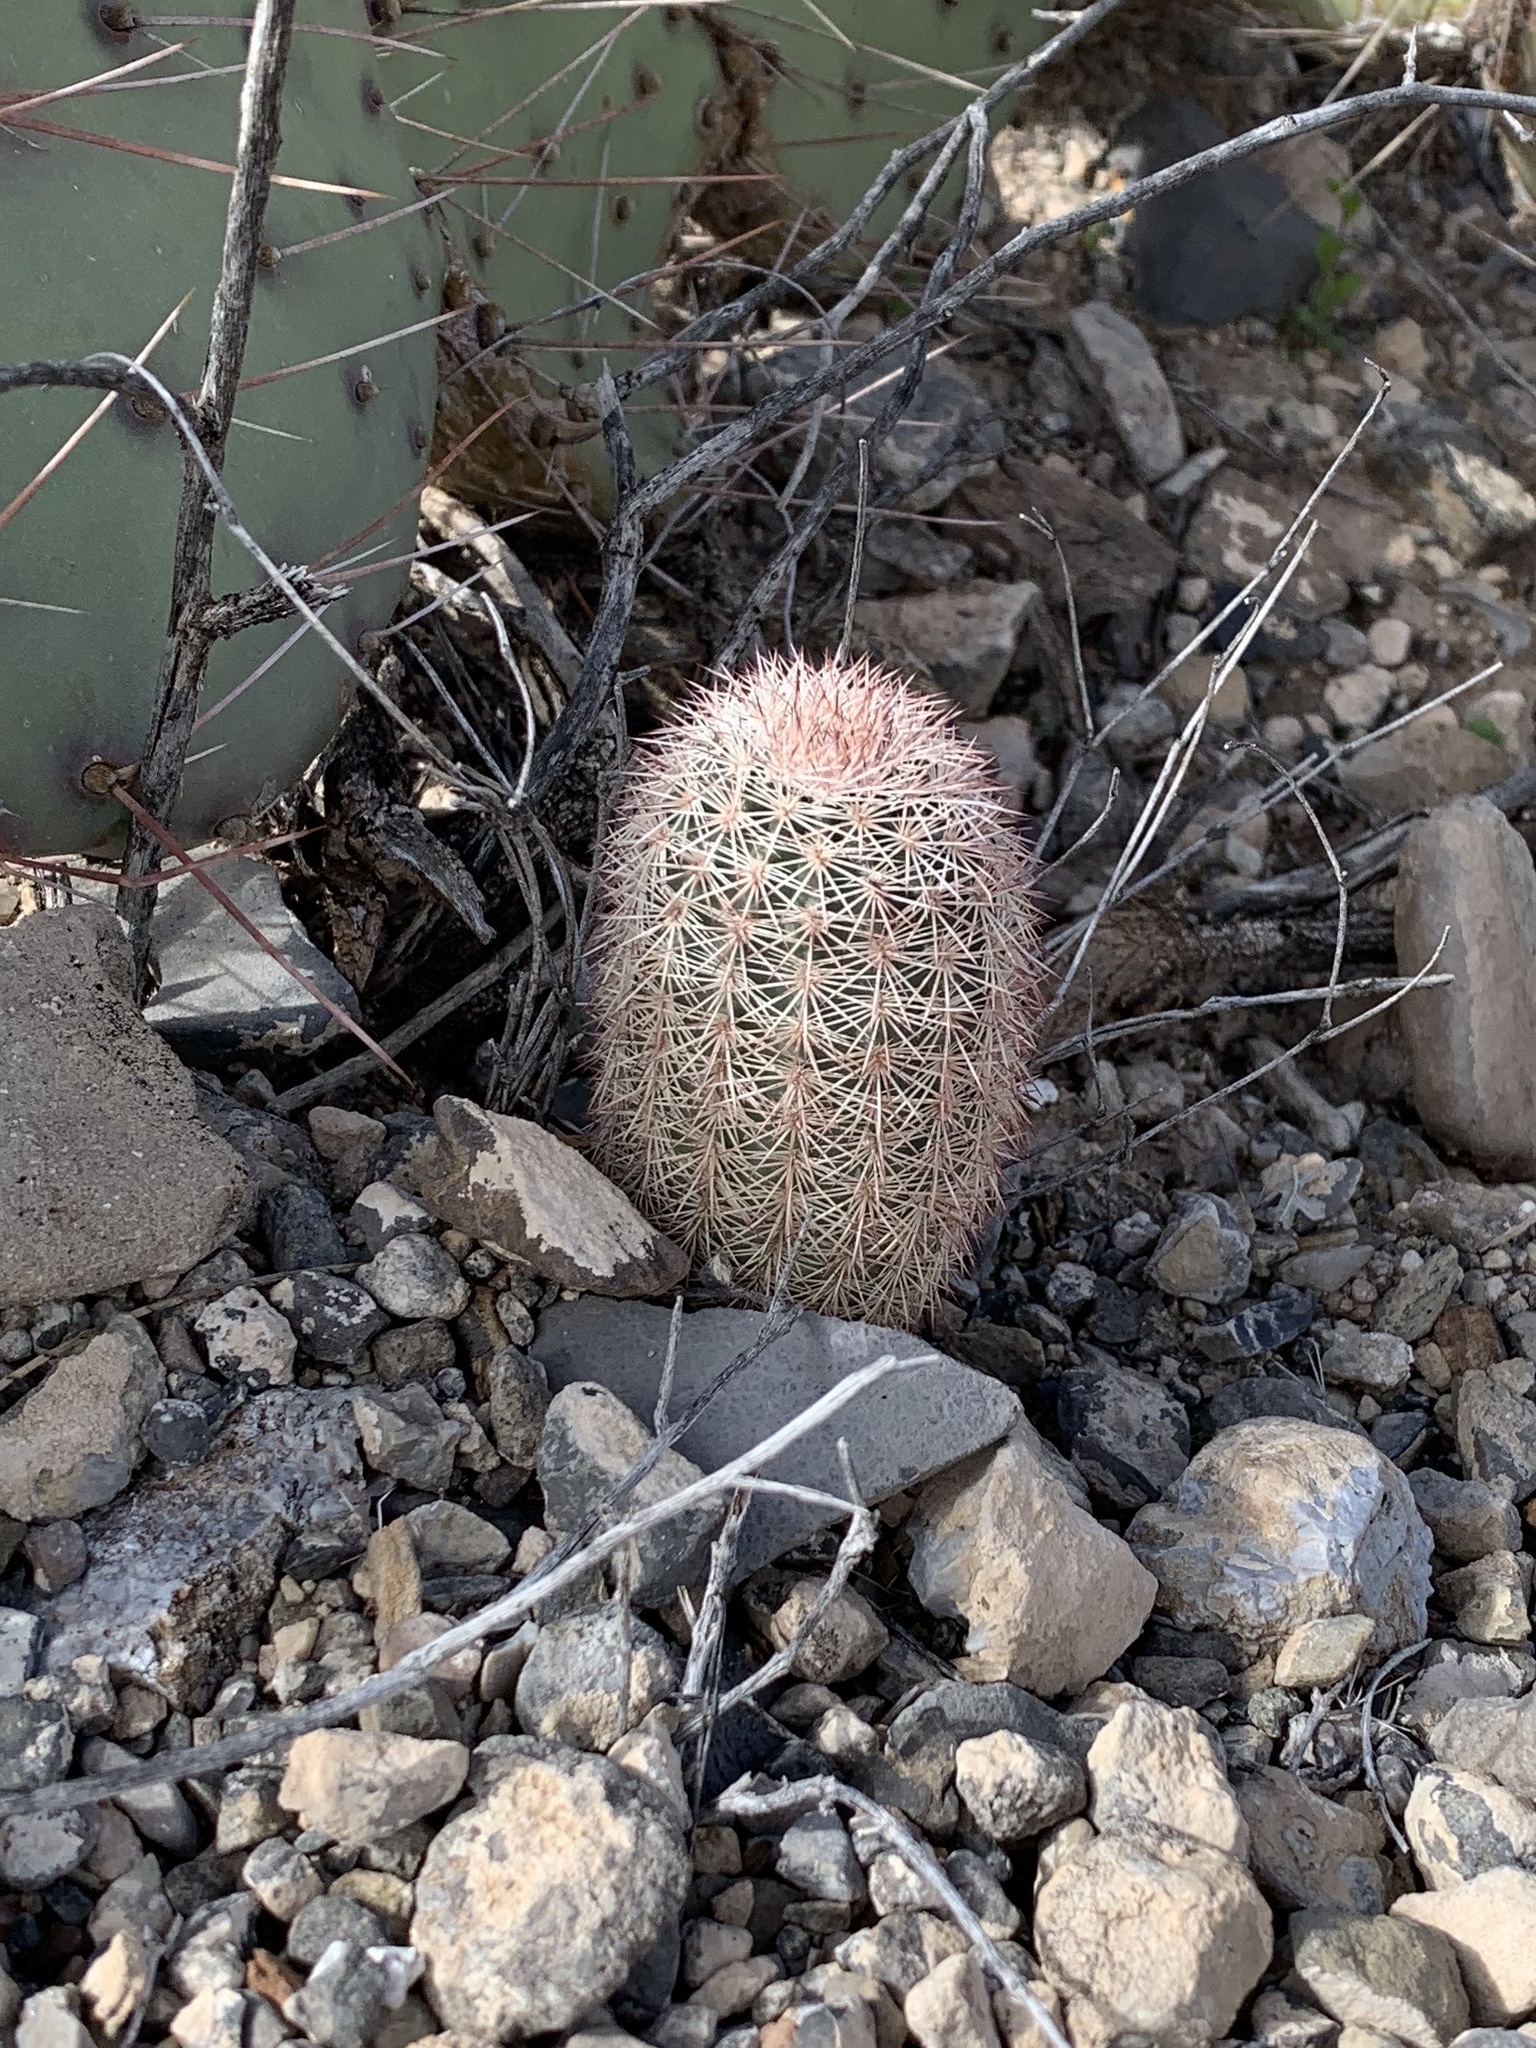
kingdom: Plantae
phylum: Tracheophyta
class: Magnoliopsida
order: Caryophyllales
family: Cactaceae
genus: Echinocereus
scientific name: Echinocereus dasyacanthus
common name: Spiny hedgehog cactus
